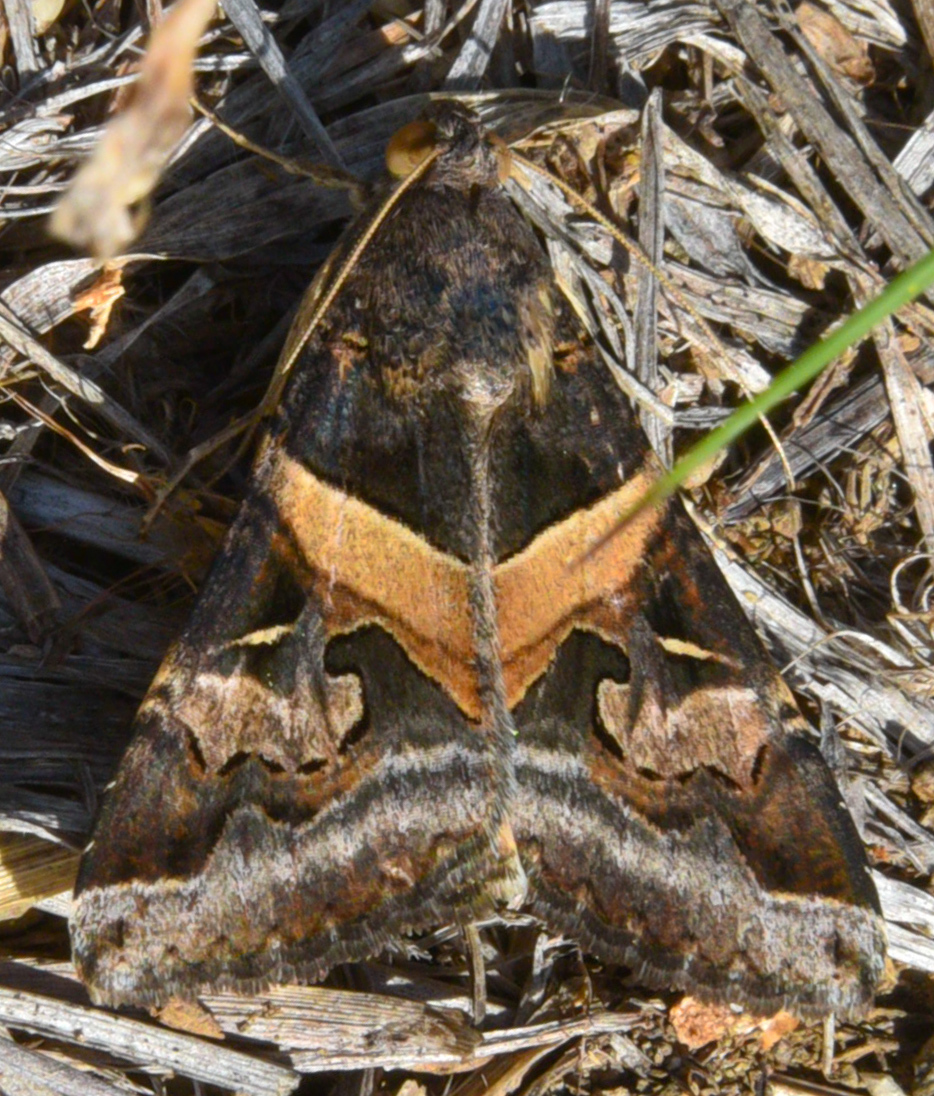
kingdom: Animalia
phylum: Arthropoda
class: Insecta
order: Lepidoptera
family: Erebidae
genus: Melipotis
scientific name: Melipotis indomita
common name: Moth
